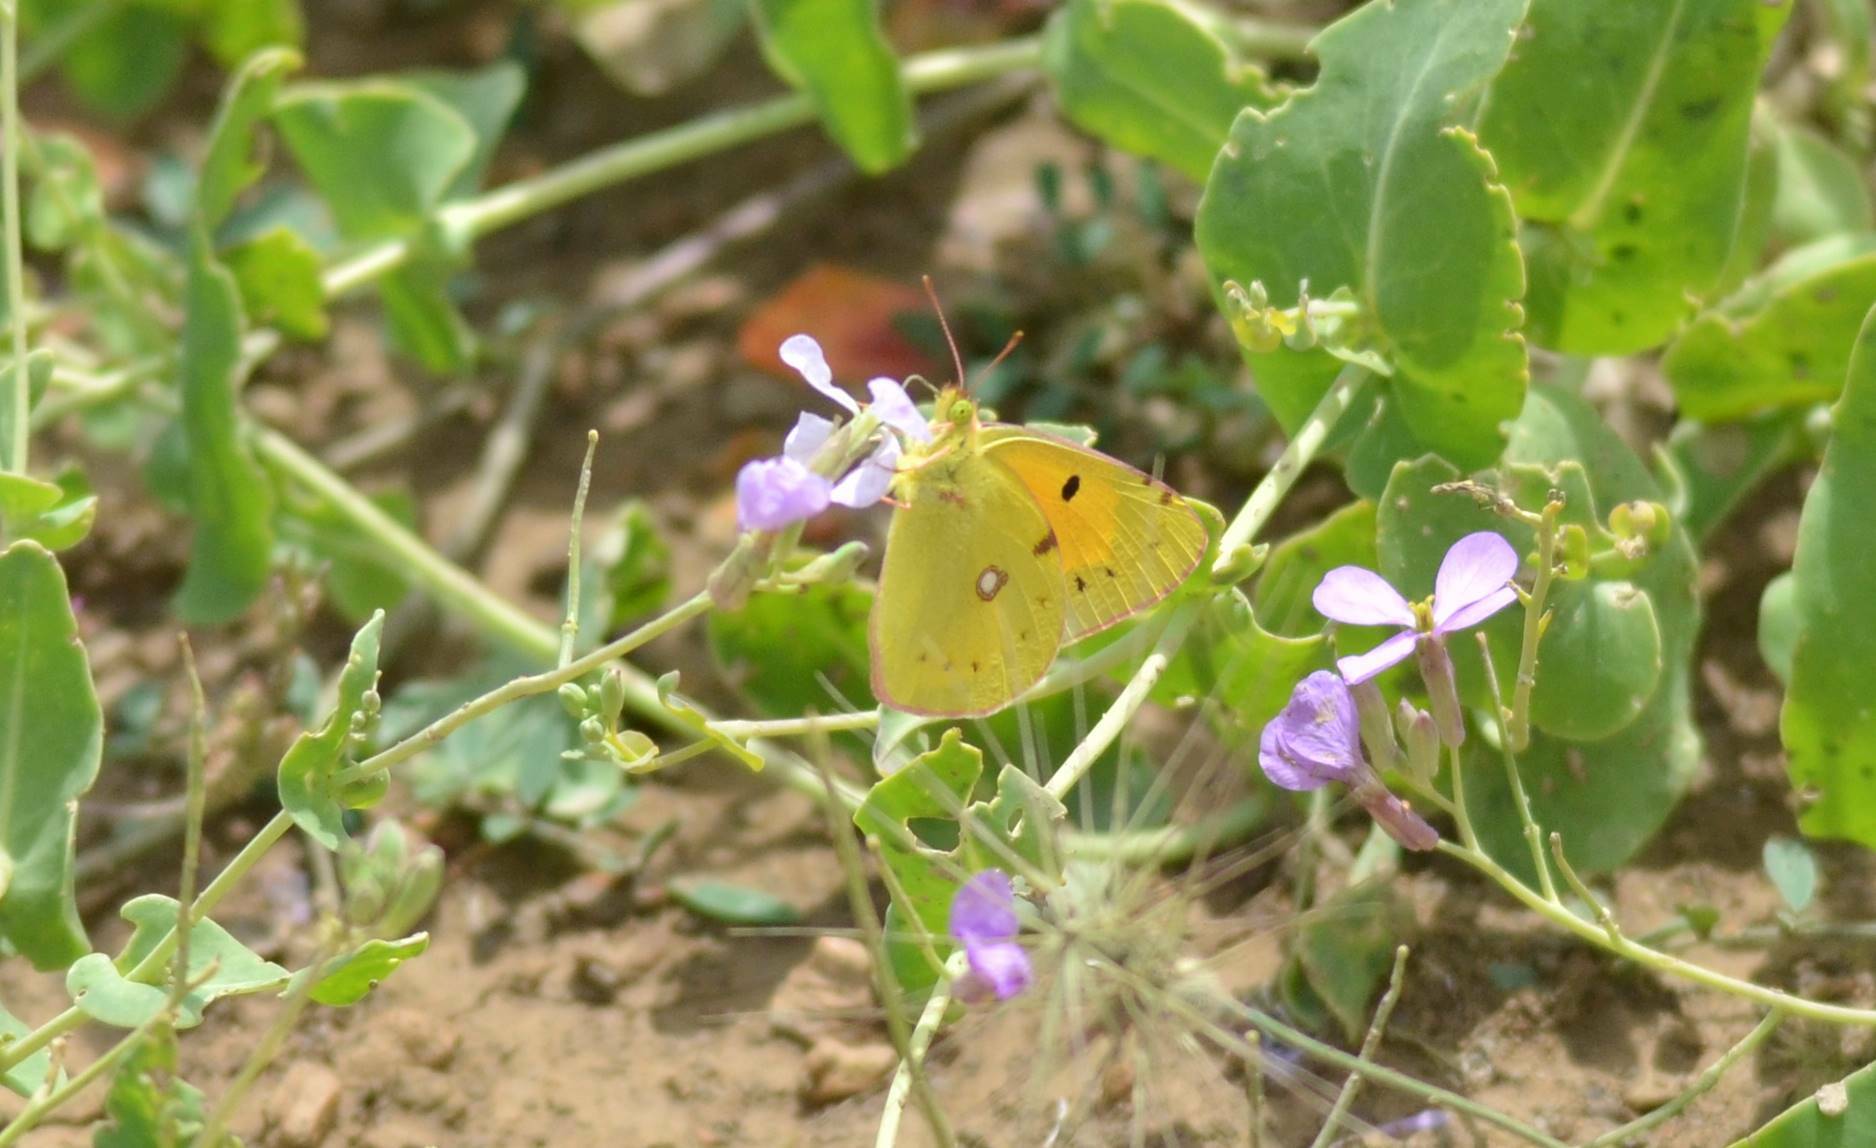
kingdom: Animalia
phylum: Arthropoda
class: Insecta
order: Lepidoptera
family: Pieridae
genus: Colias
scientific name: Colias croceus
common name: Clouded yellow
